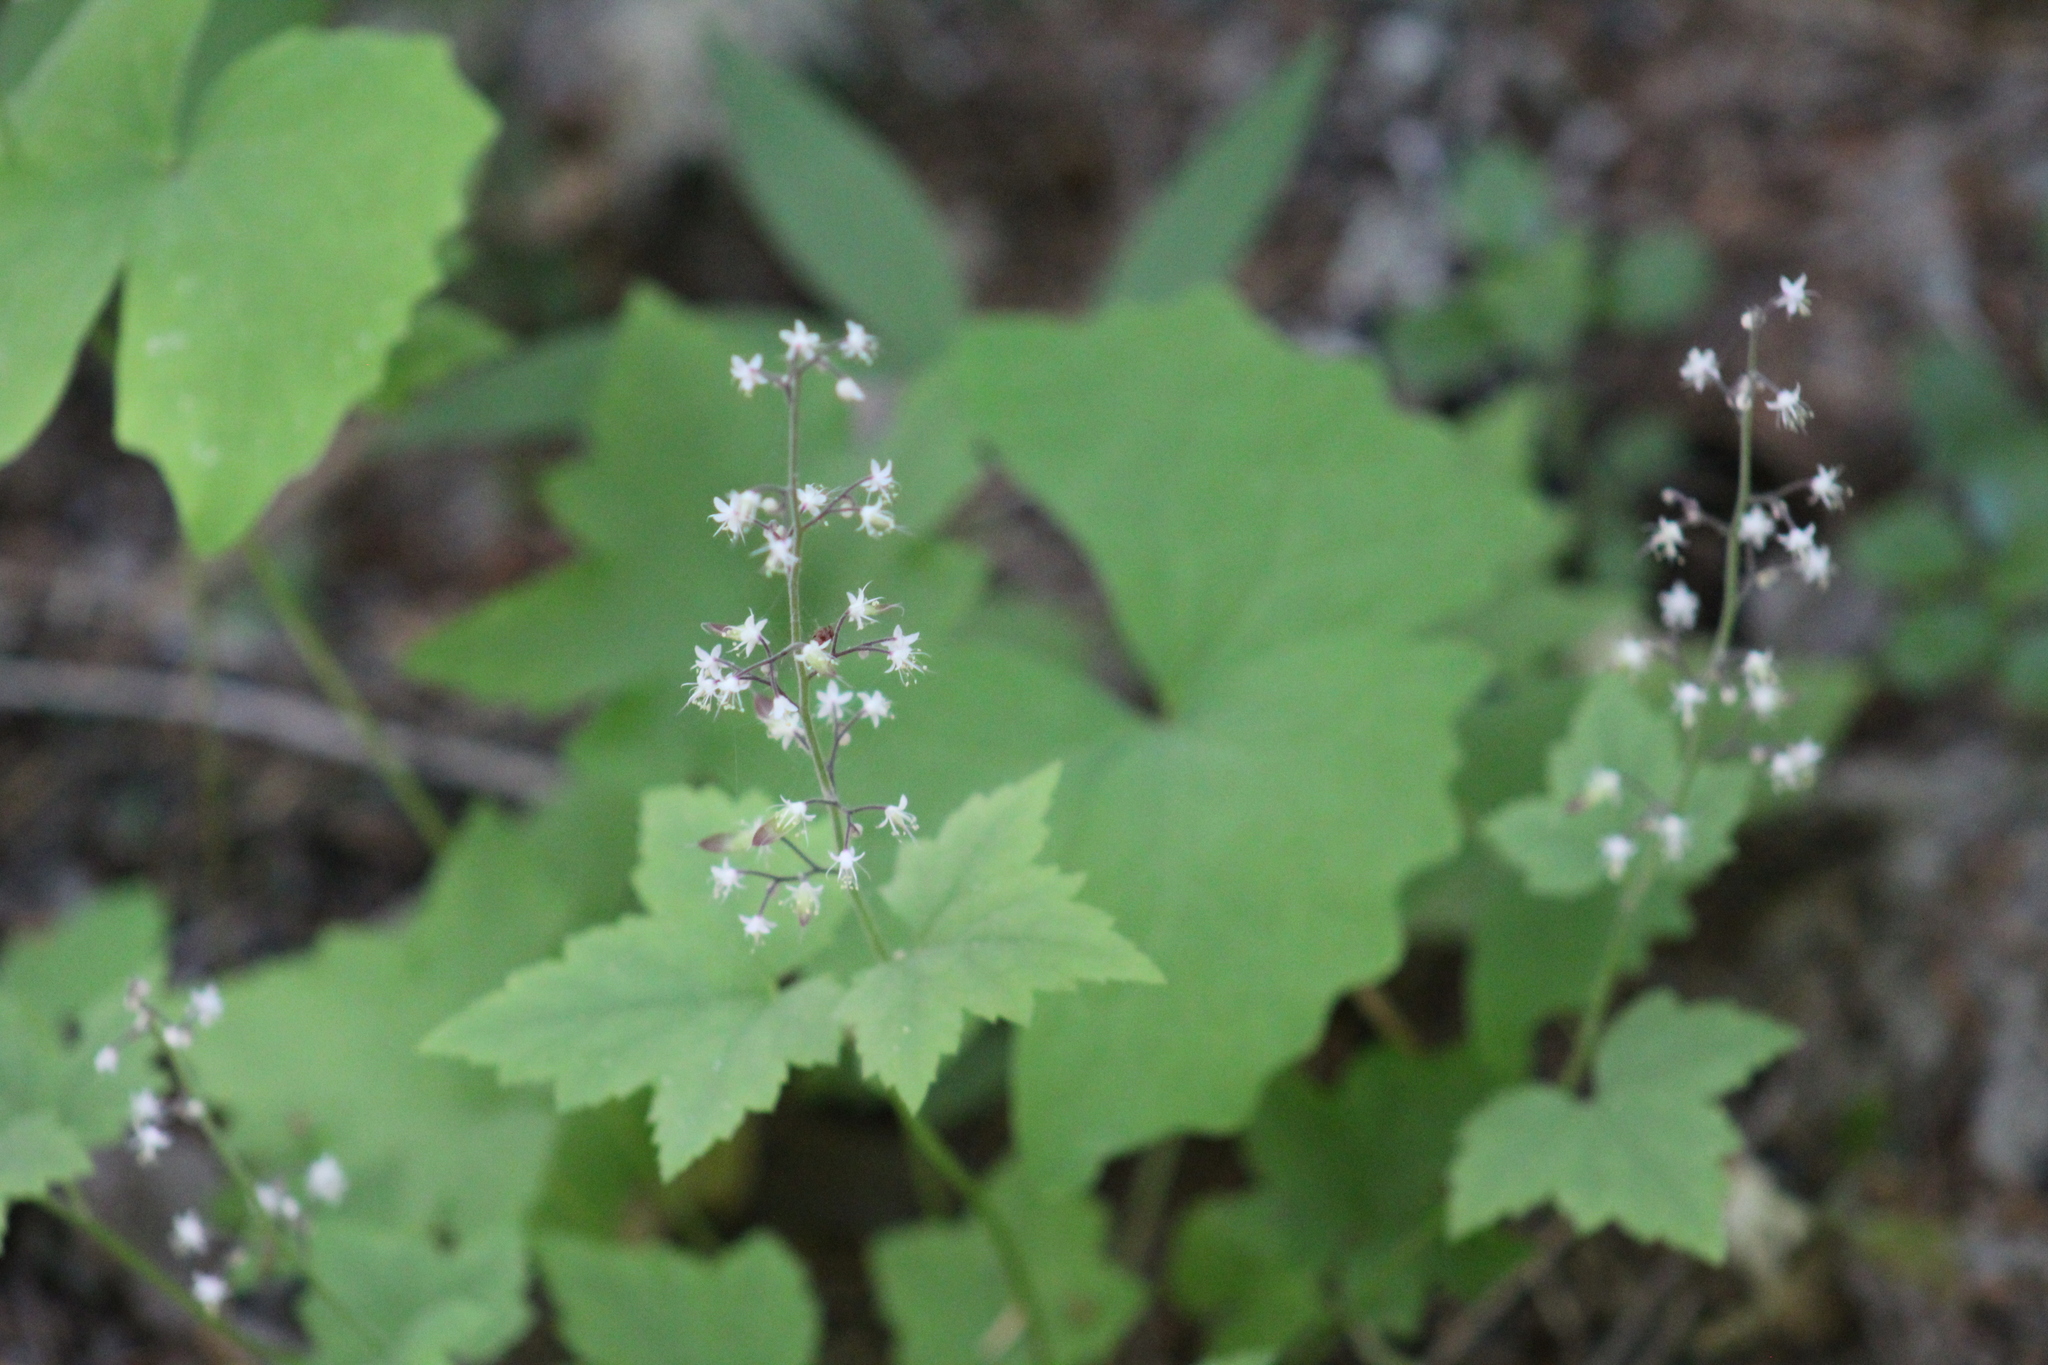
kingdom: Plantae
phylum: Tracheophyta
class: Magnoliopsida
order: Saxifragales
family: Saxifragaceae
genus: Tiarella
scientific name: Tiarella trifoliata
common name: Sugar-scoop
